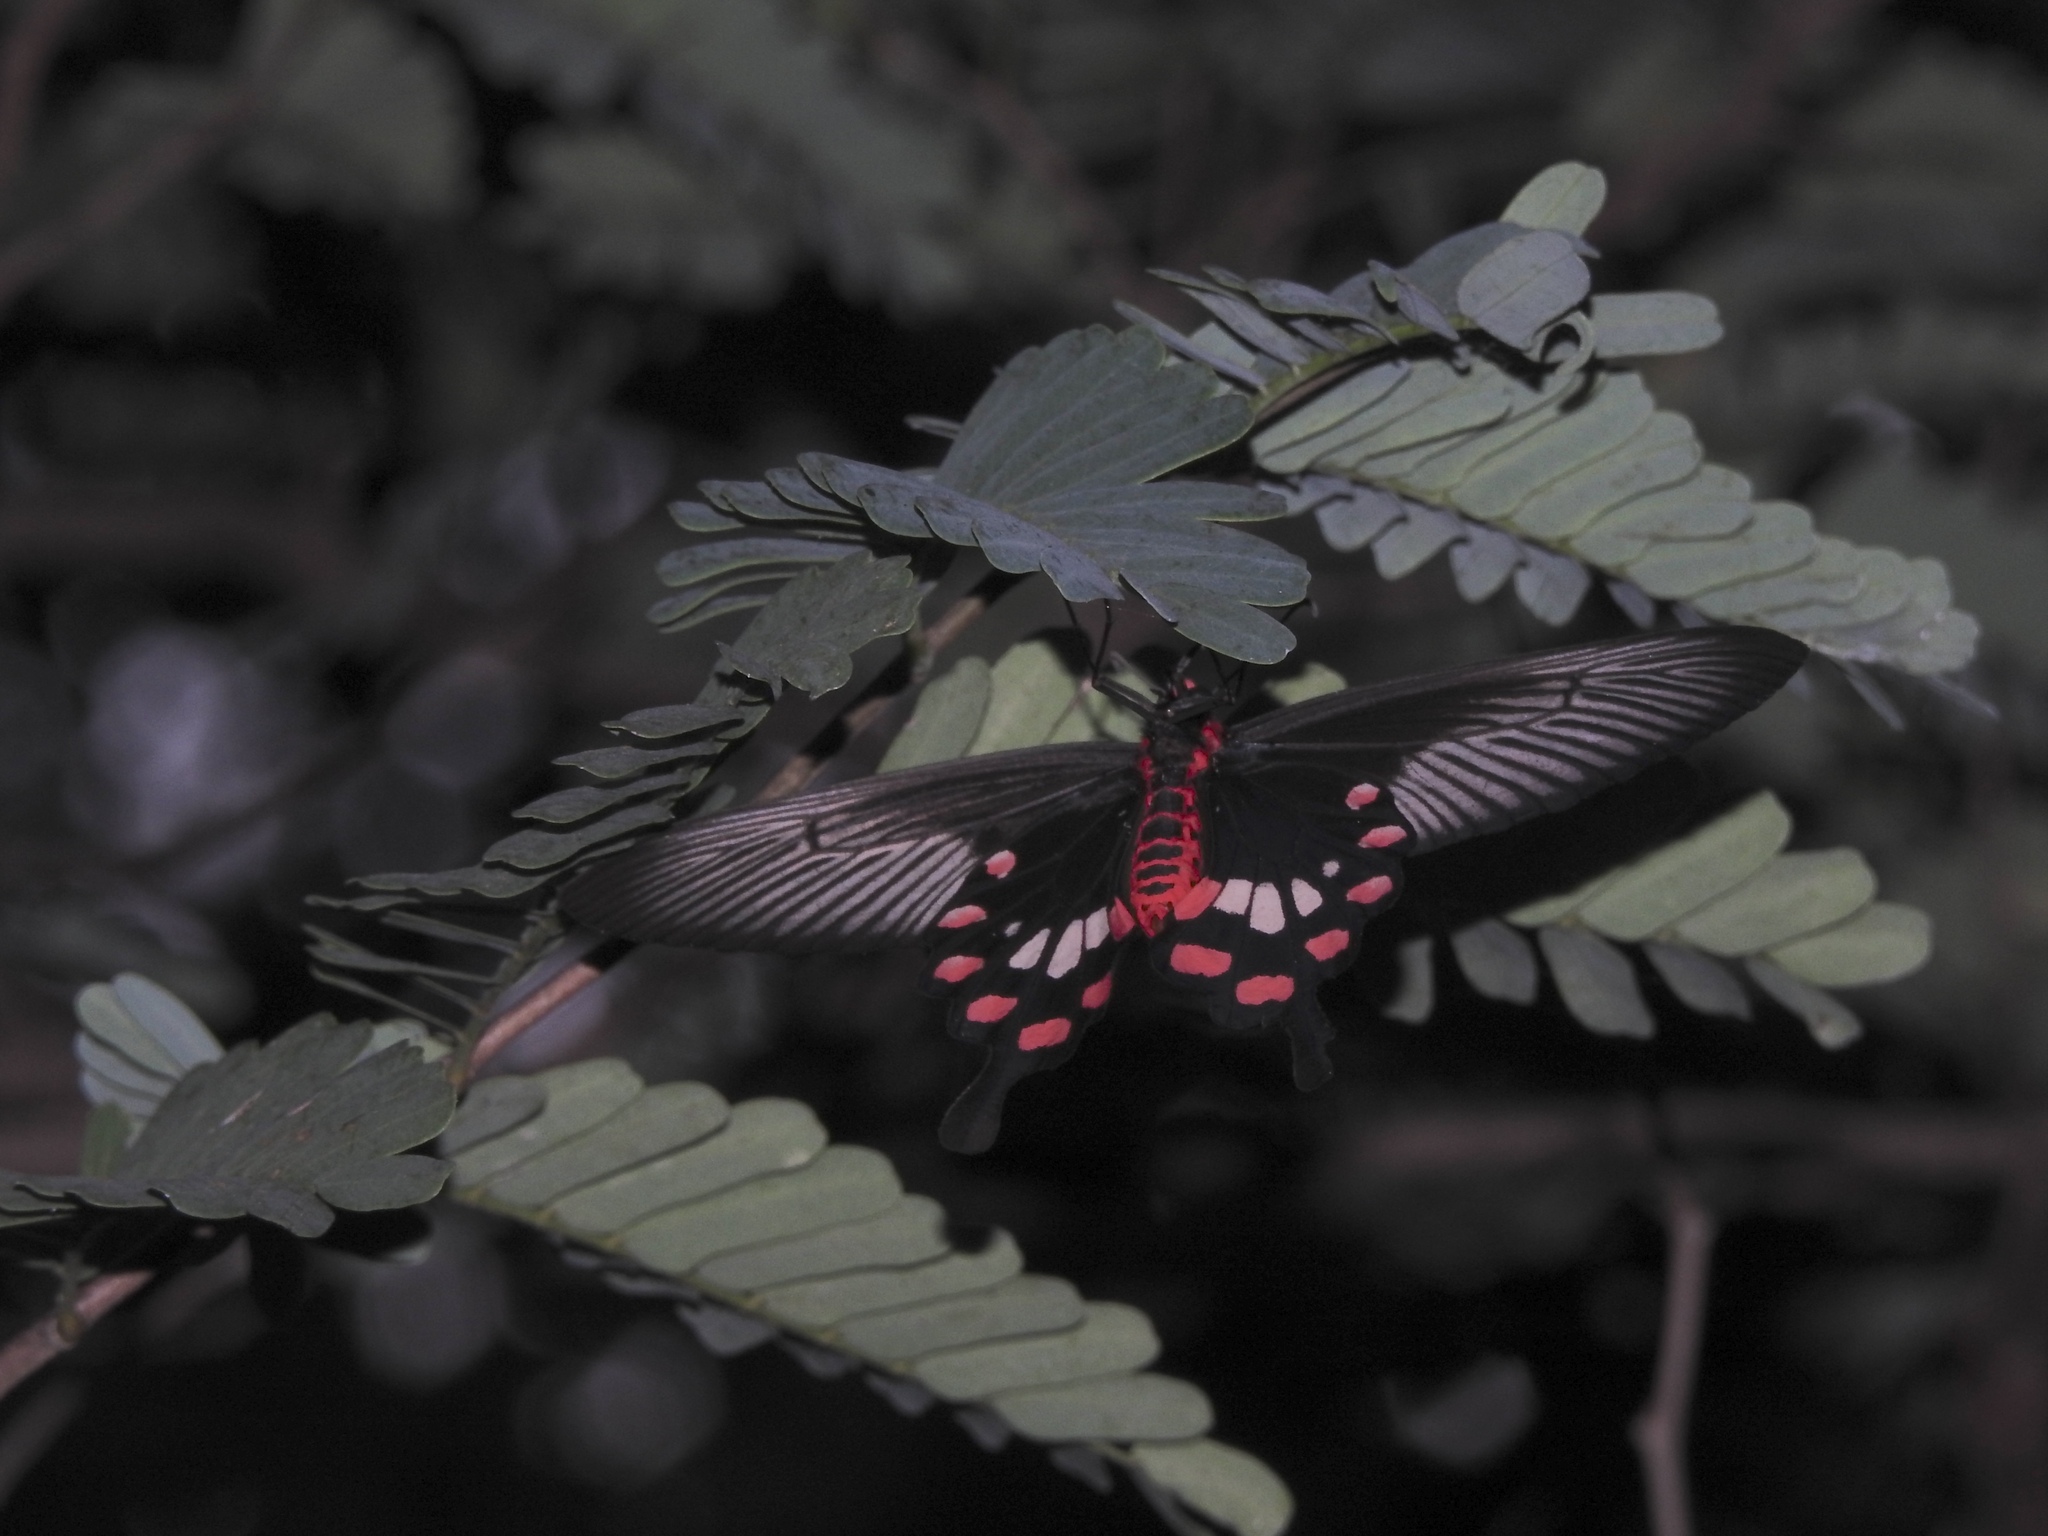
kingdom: Animalia
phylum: Arthropoda
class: Insecta
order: Lepidoptera
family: Papilionidae
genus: Pachliopta
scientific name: Pachliopta aristolochiae
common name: Common rose
